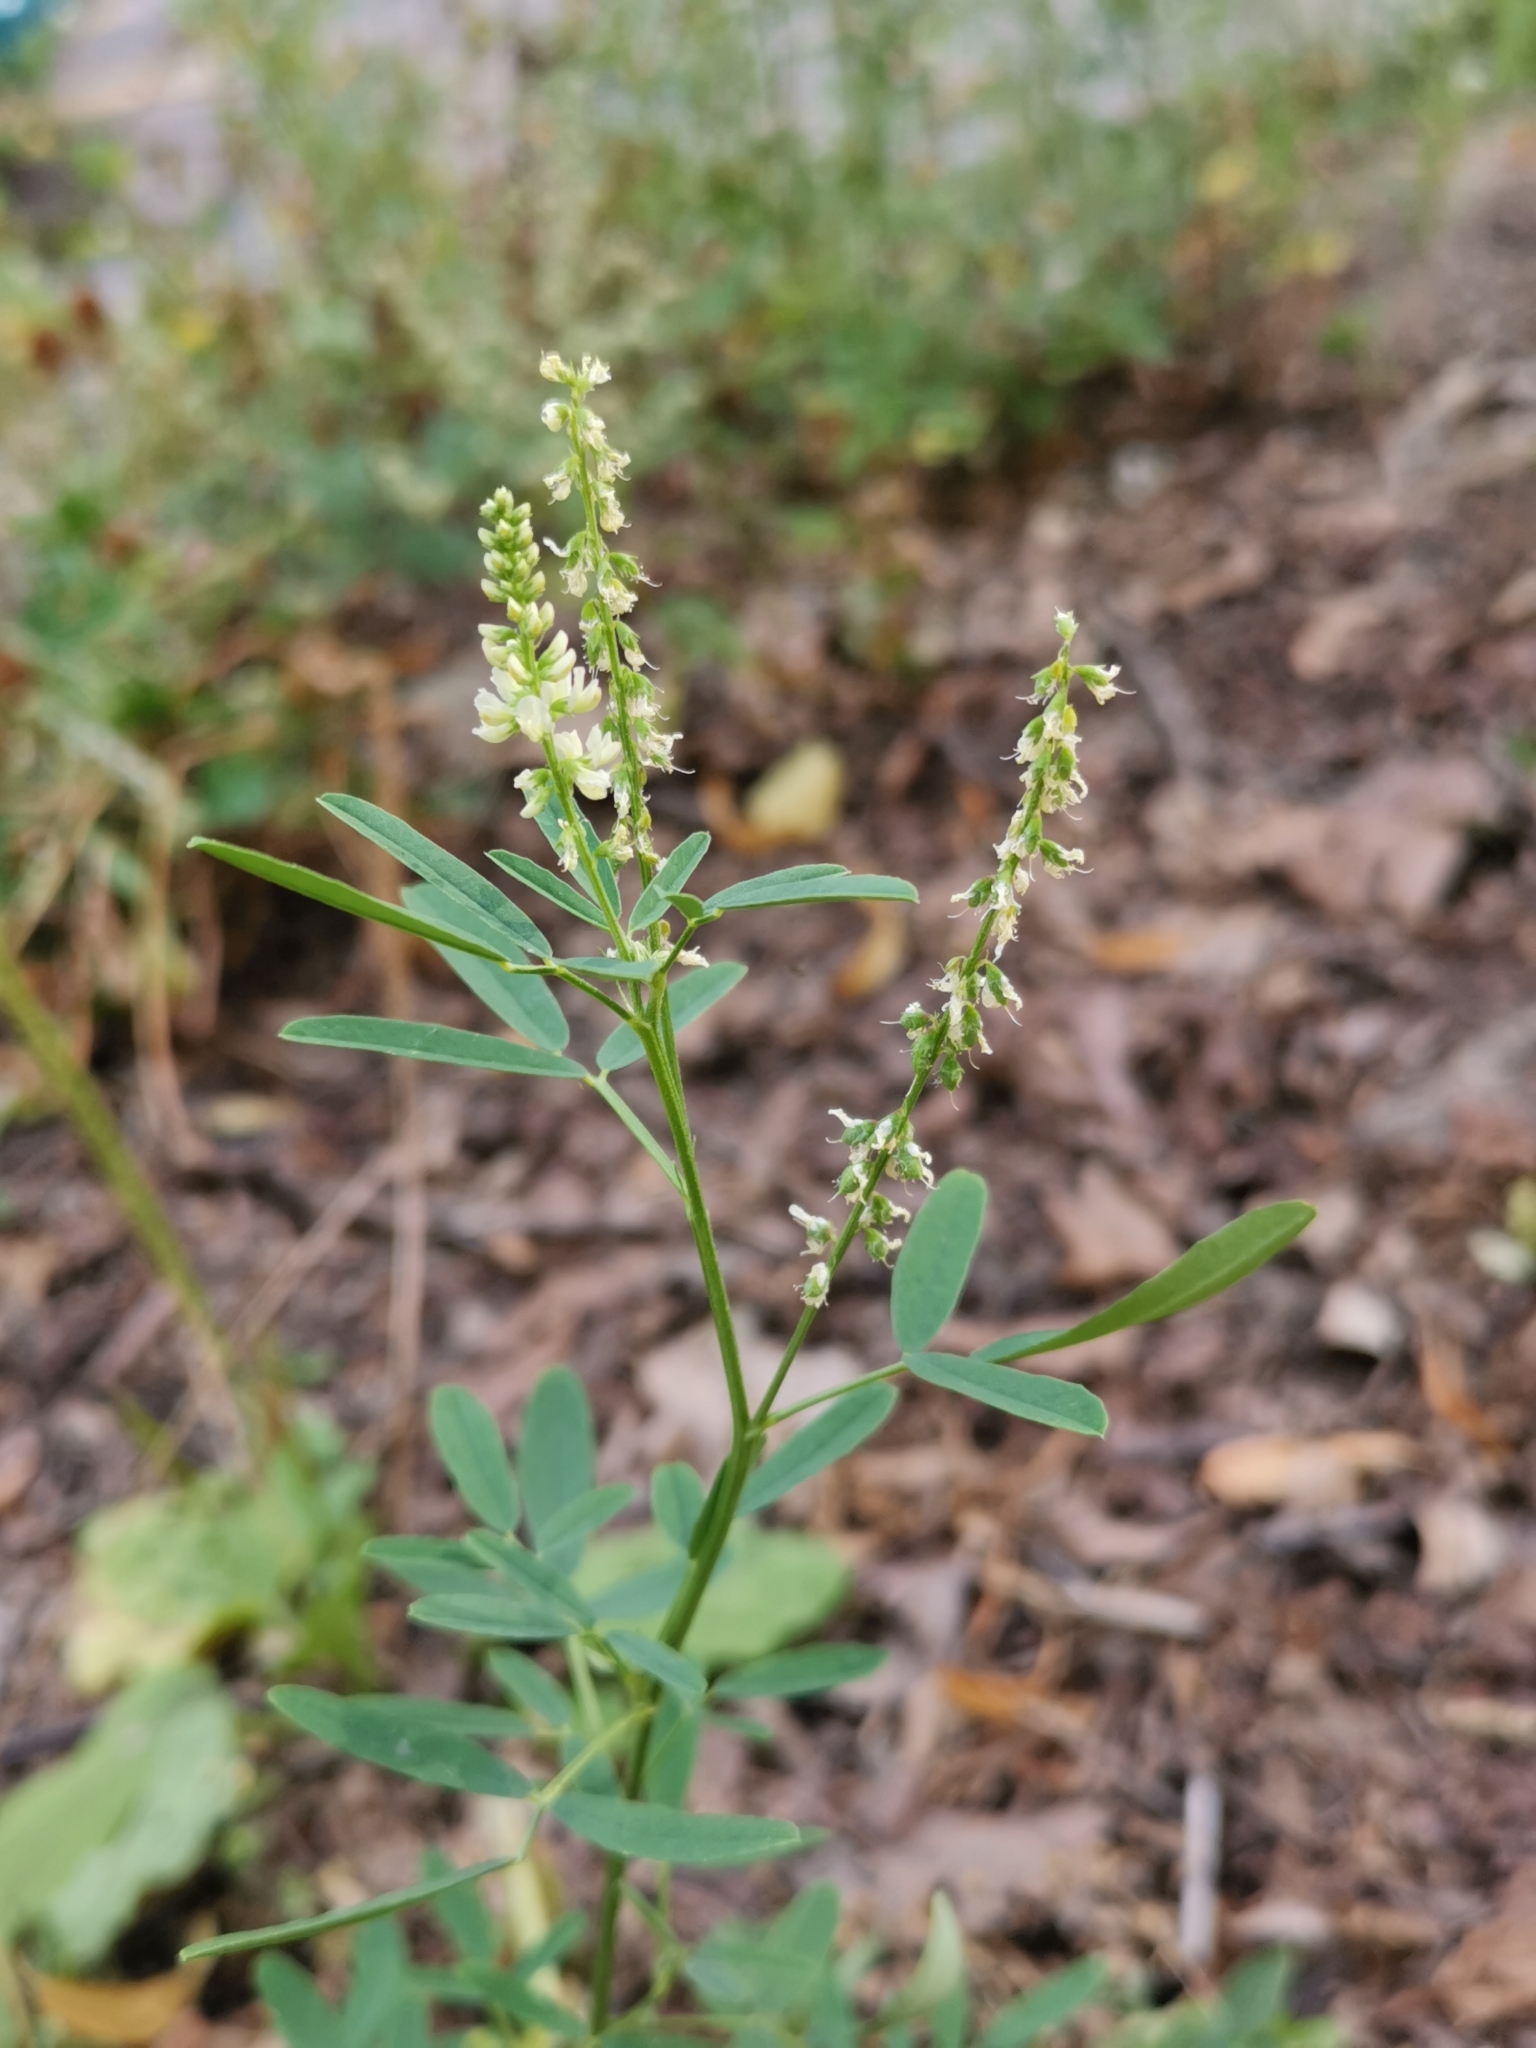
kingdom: Plantae
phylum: Tracheophyta
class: Magnoliopsida
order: Fabales
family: Fabaceae
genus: Melilotus
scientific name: Melilotus albus
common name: White melilot
